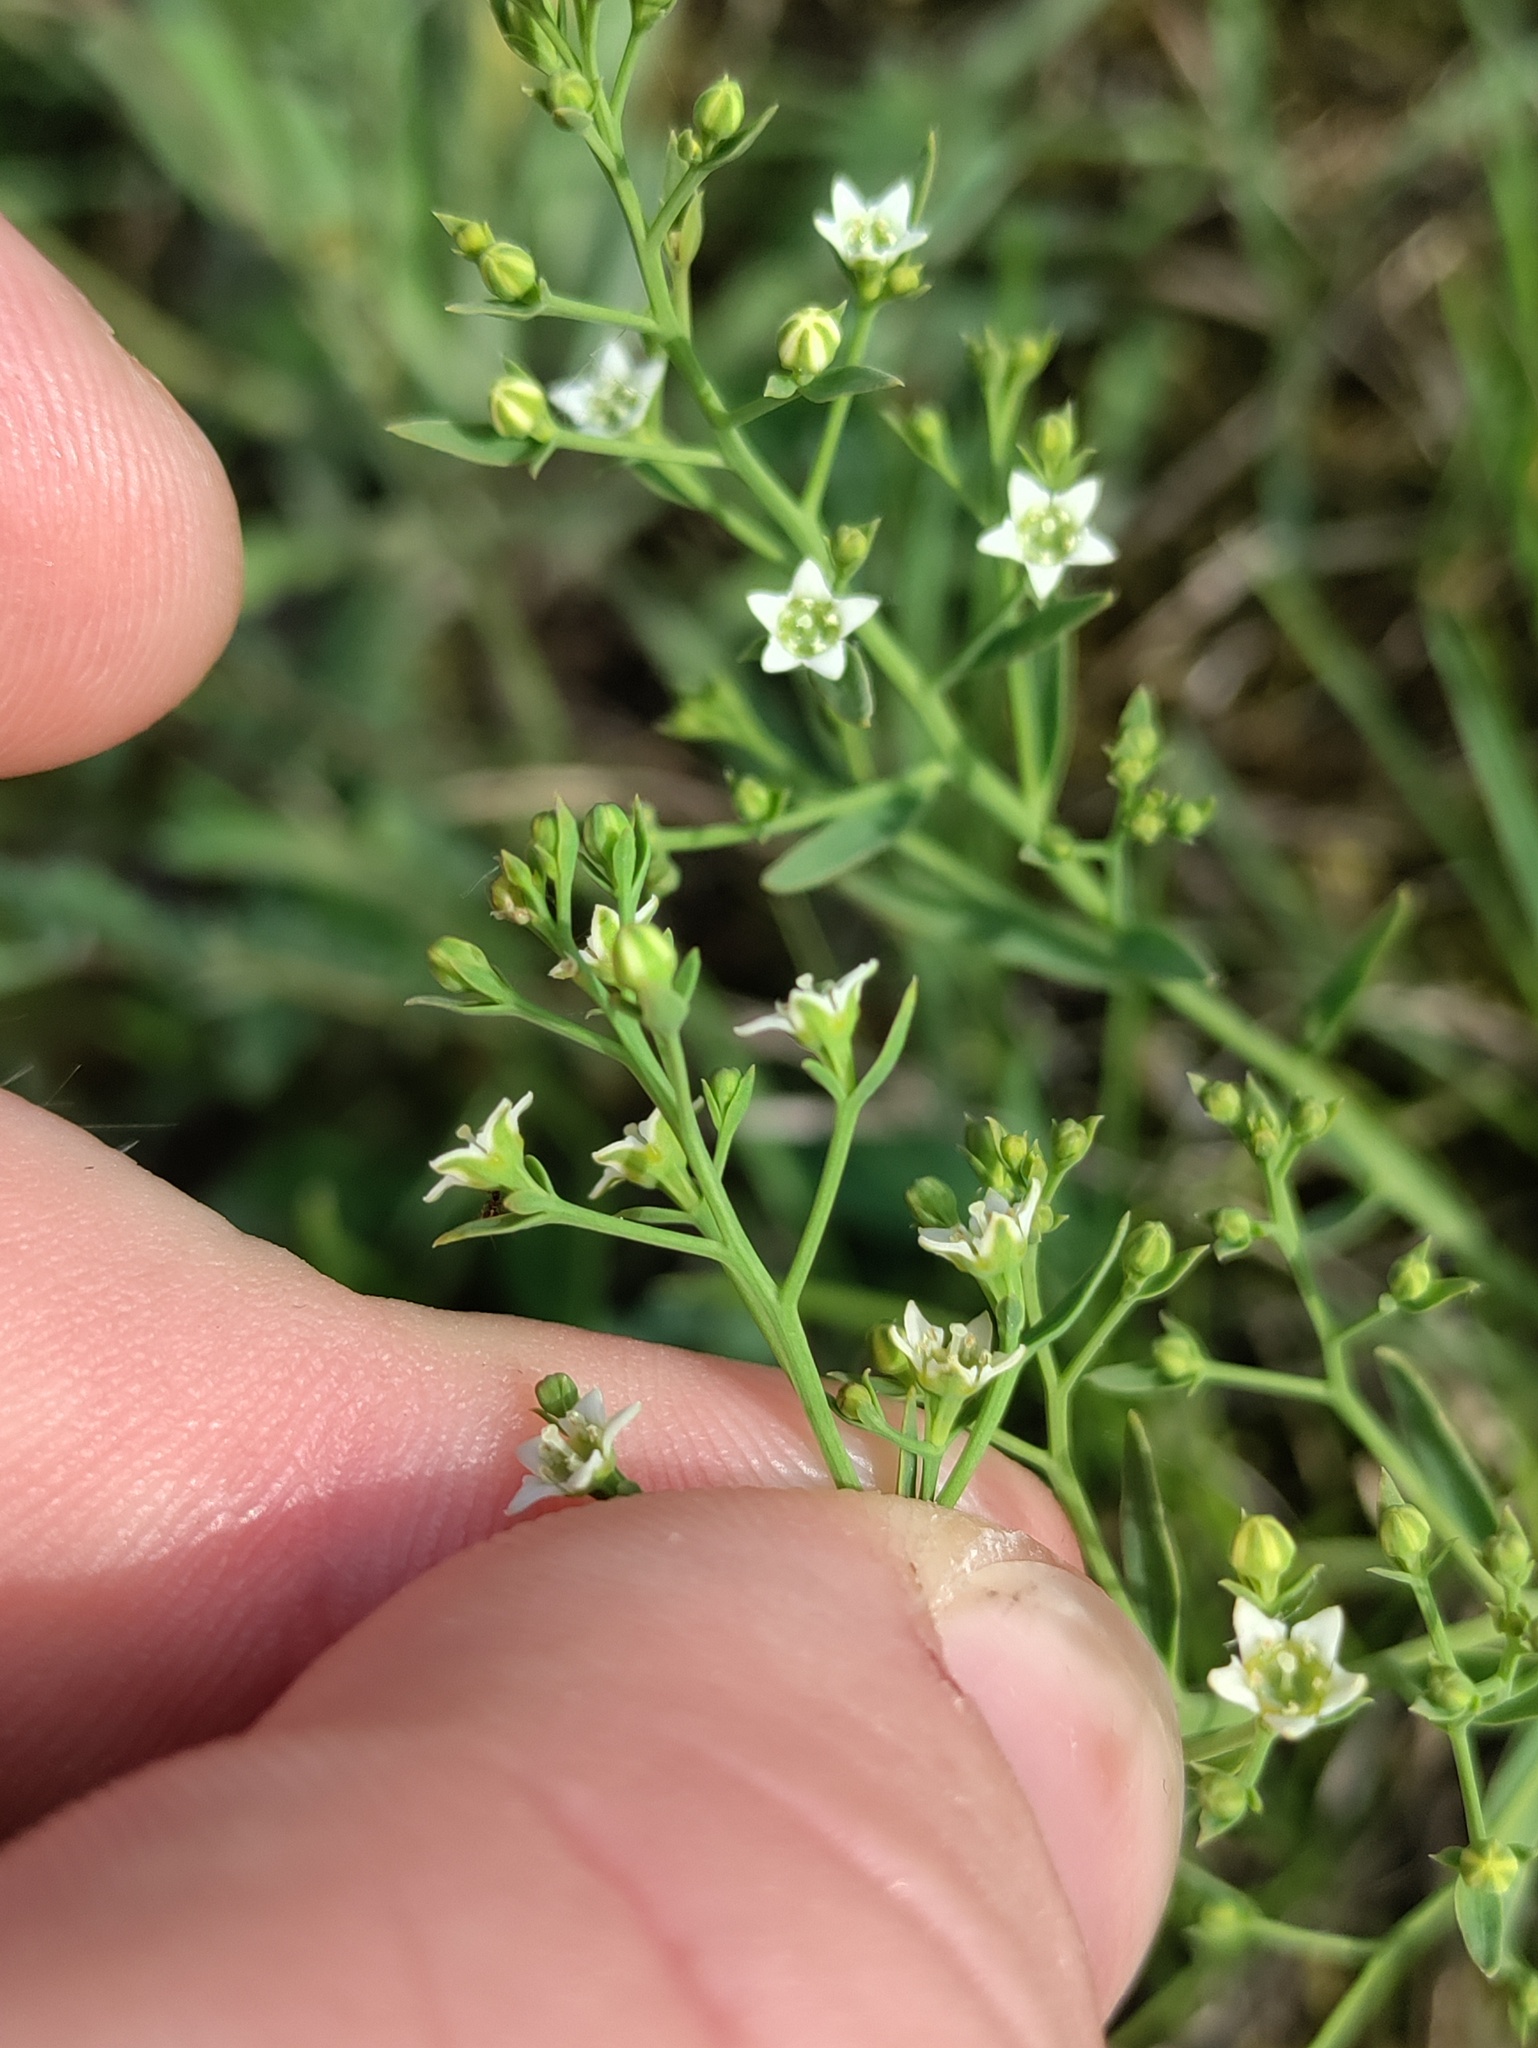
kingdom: Plantae
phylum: Tracheophyta
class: Magnoliopsida
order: Santalales
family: Thesiaceae
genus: Thesium
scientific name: Thesium linophyllon
